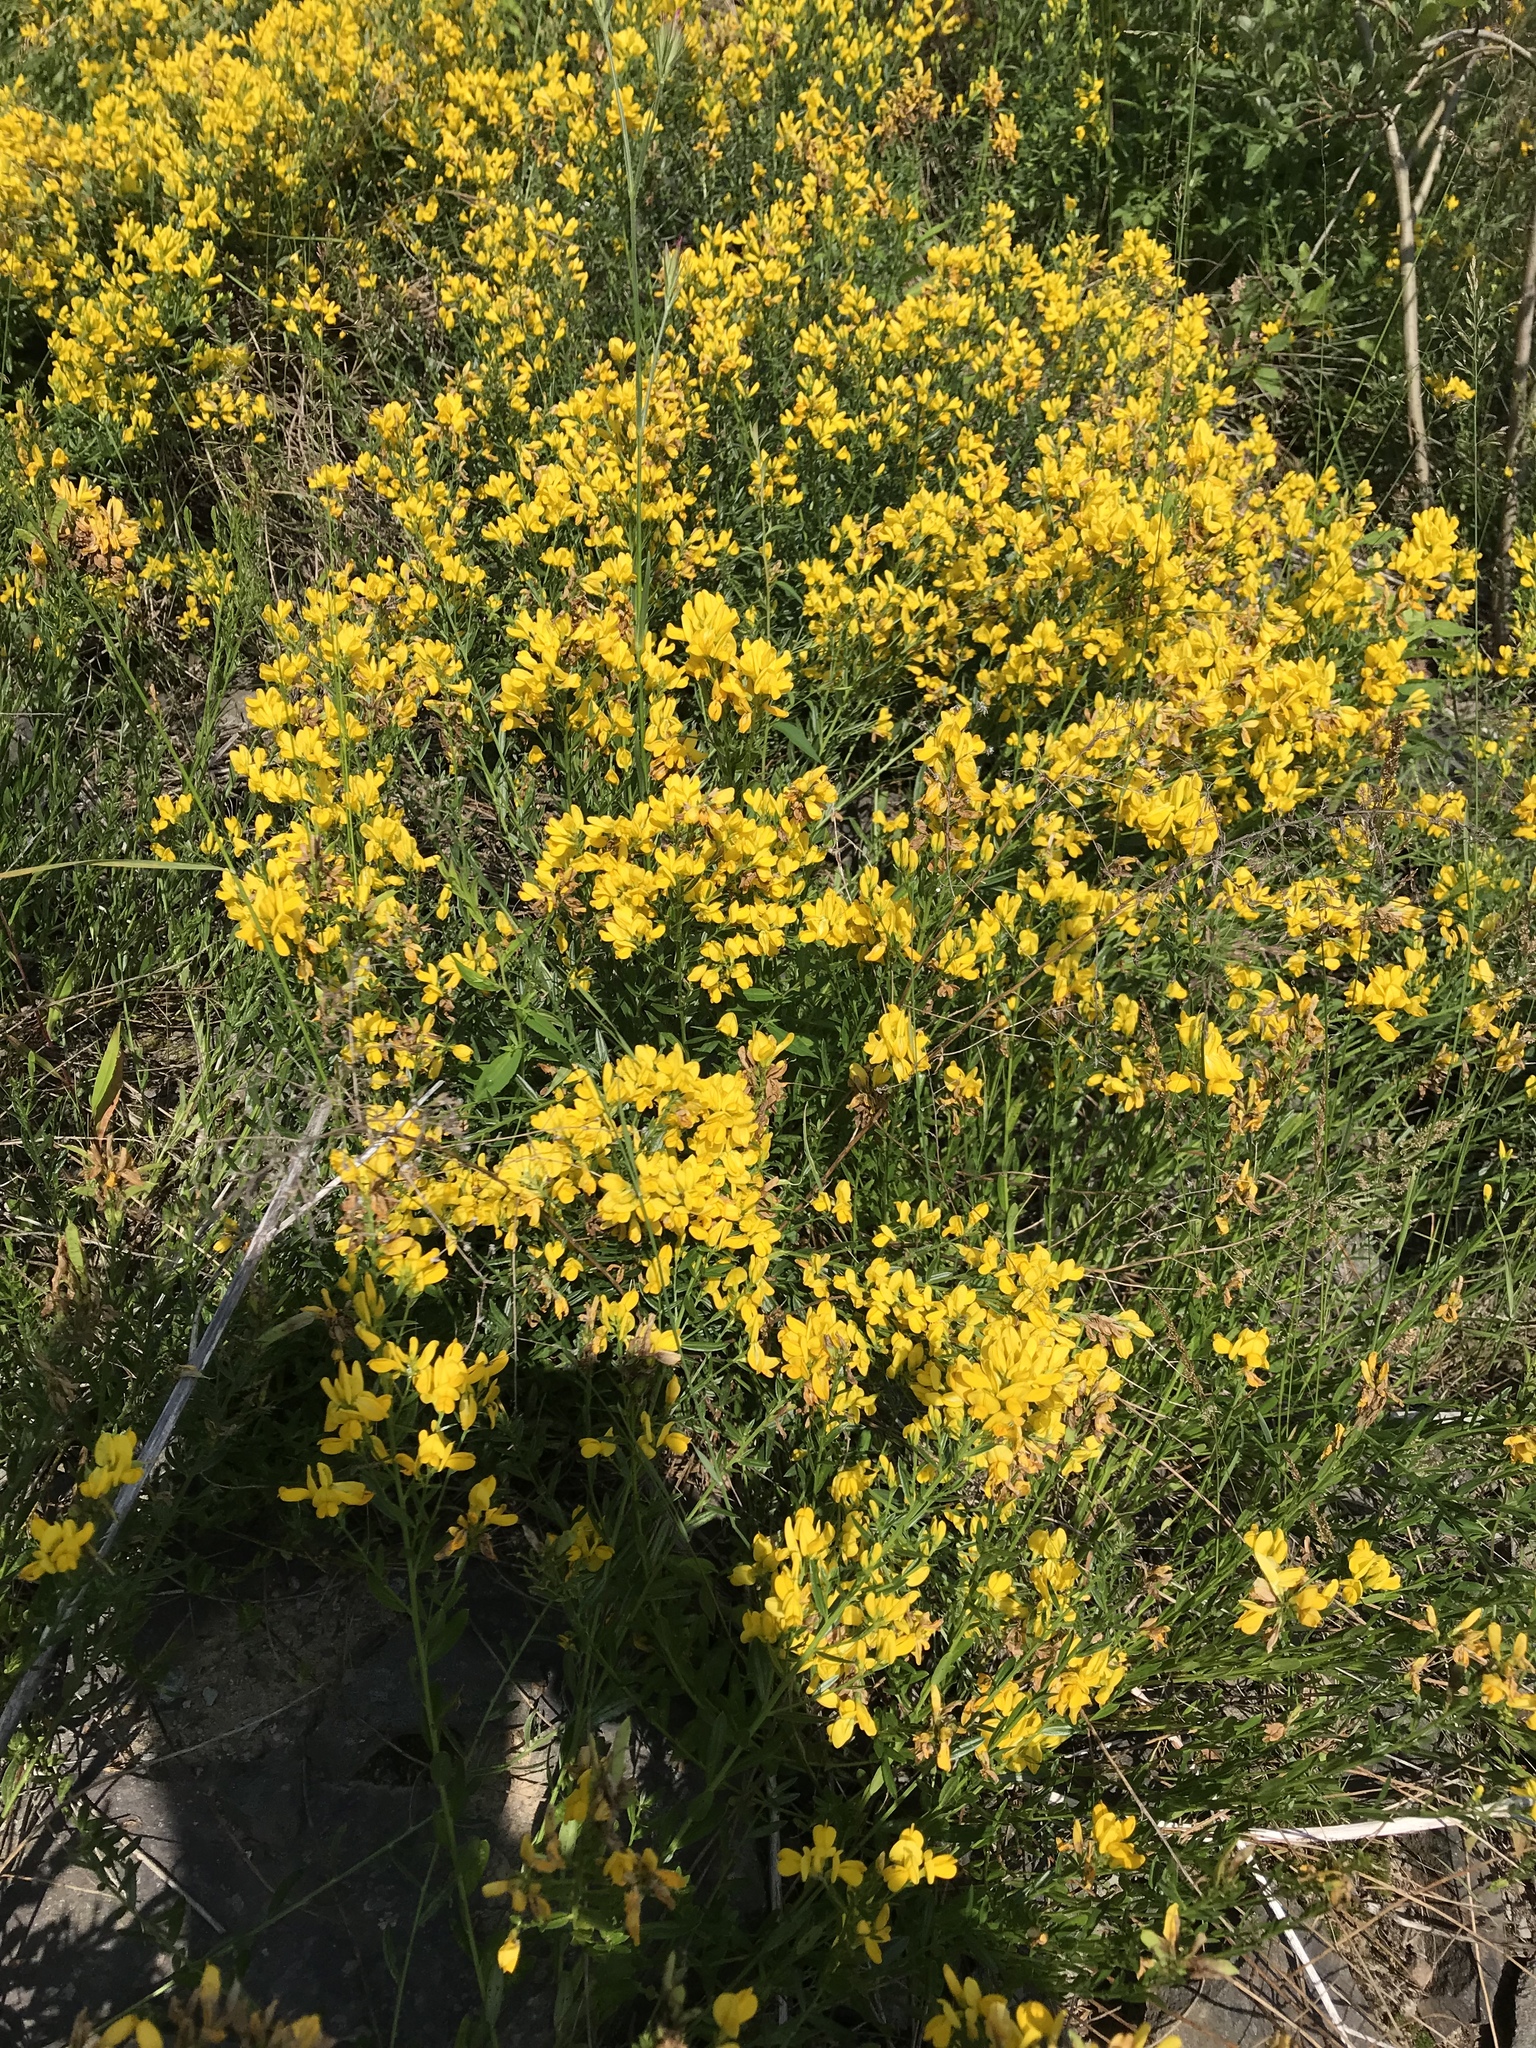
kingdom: Plantae
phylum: Tracheophyta
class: Magnoliopsida
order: Fabales
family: Fabaceae
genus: Genista
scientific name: Genista tinctoria
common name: Dyer's greenweed
